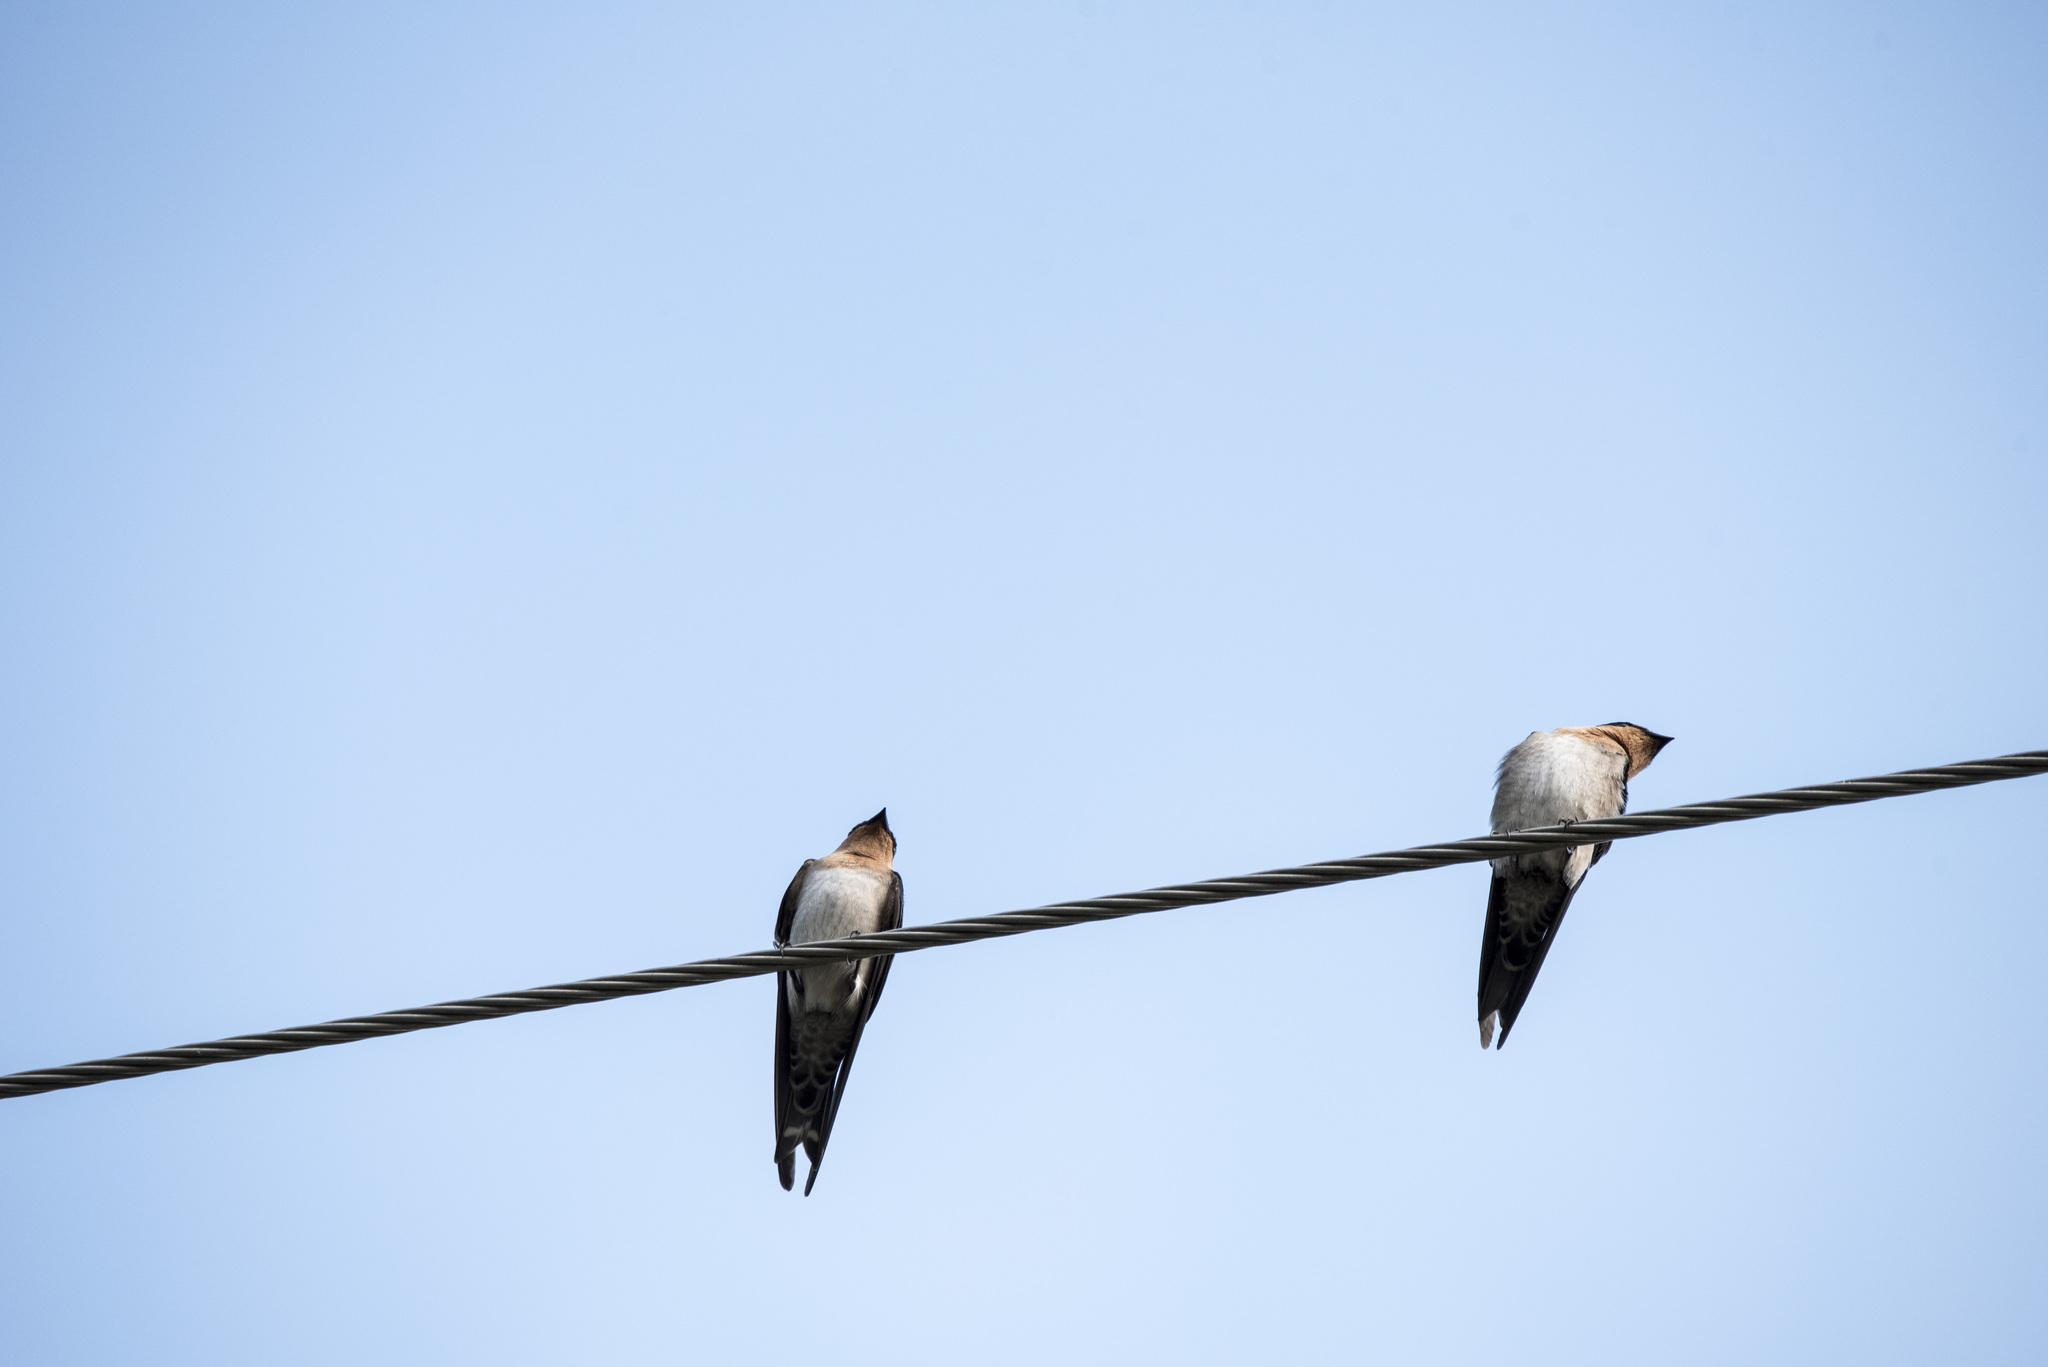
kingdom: Animalia
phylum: Chordata
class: Aves
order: Passeriformes
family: Hirundinidae
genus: Hirundo
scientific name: Hirundo tahitica
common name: Pacific swallow
